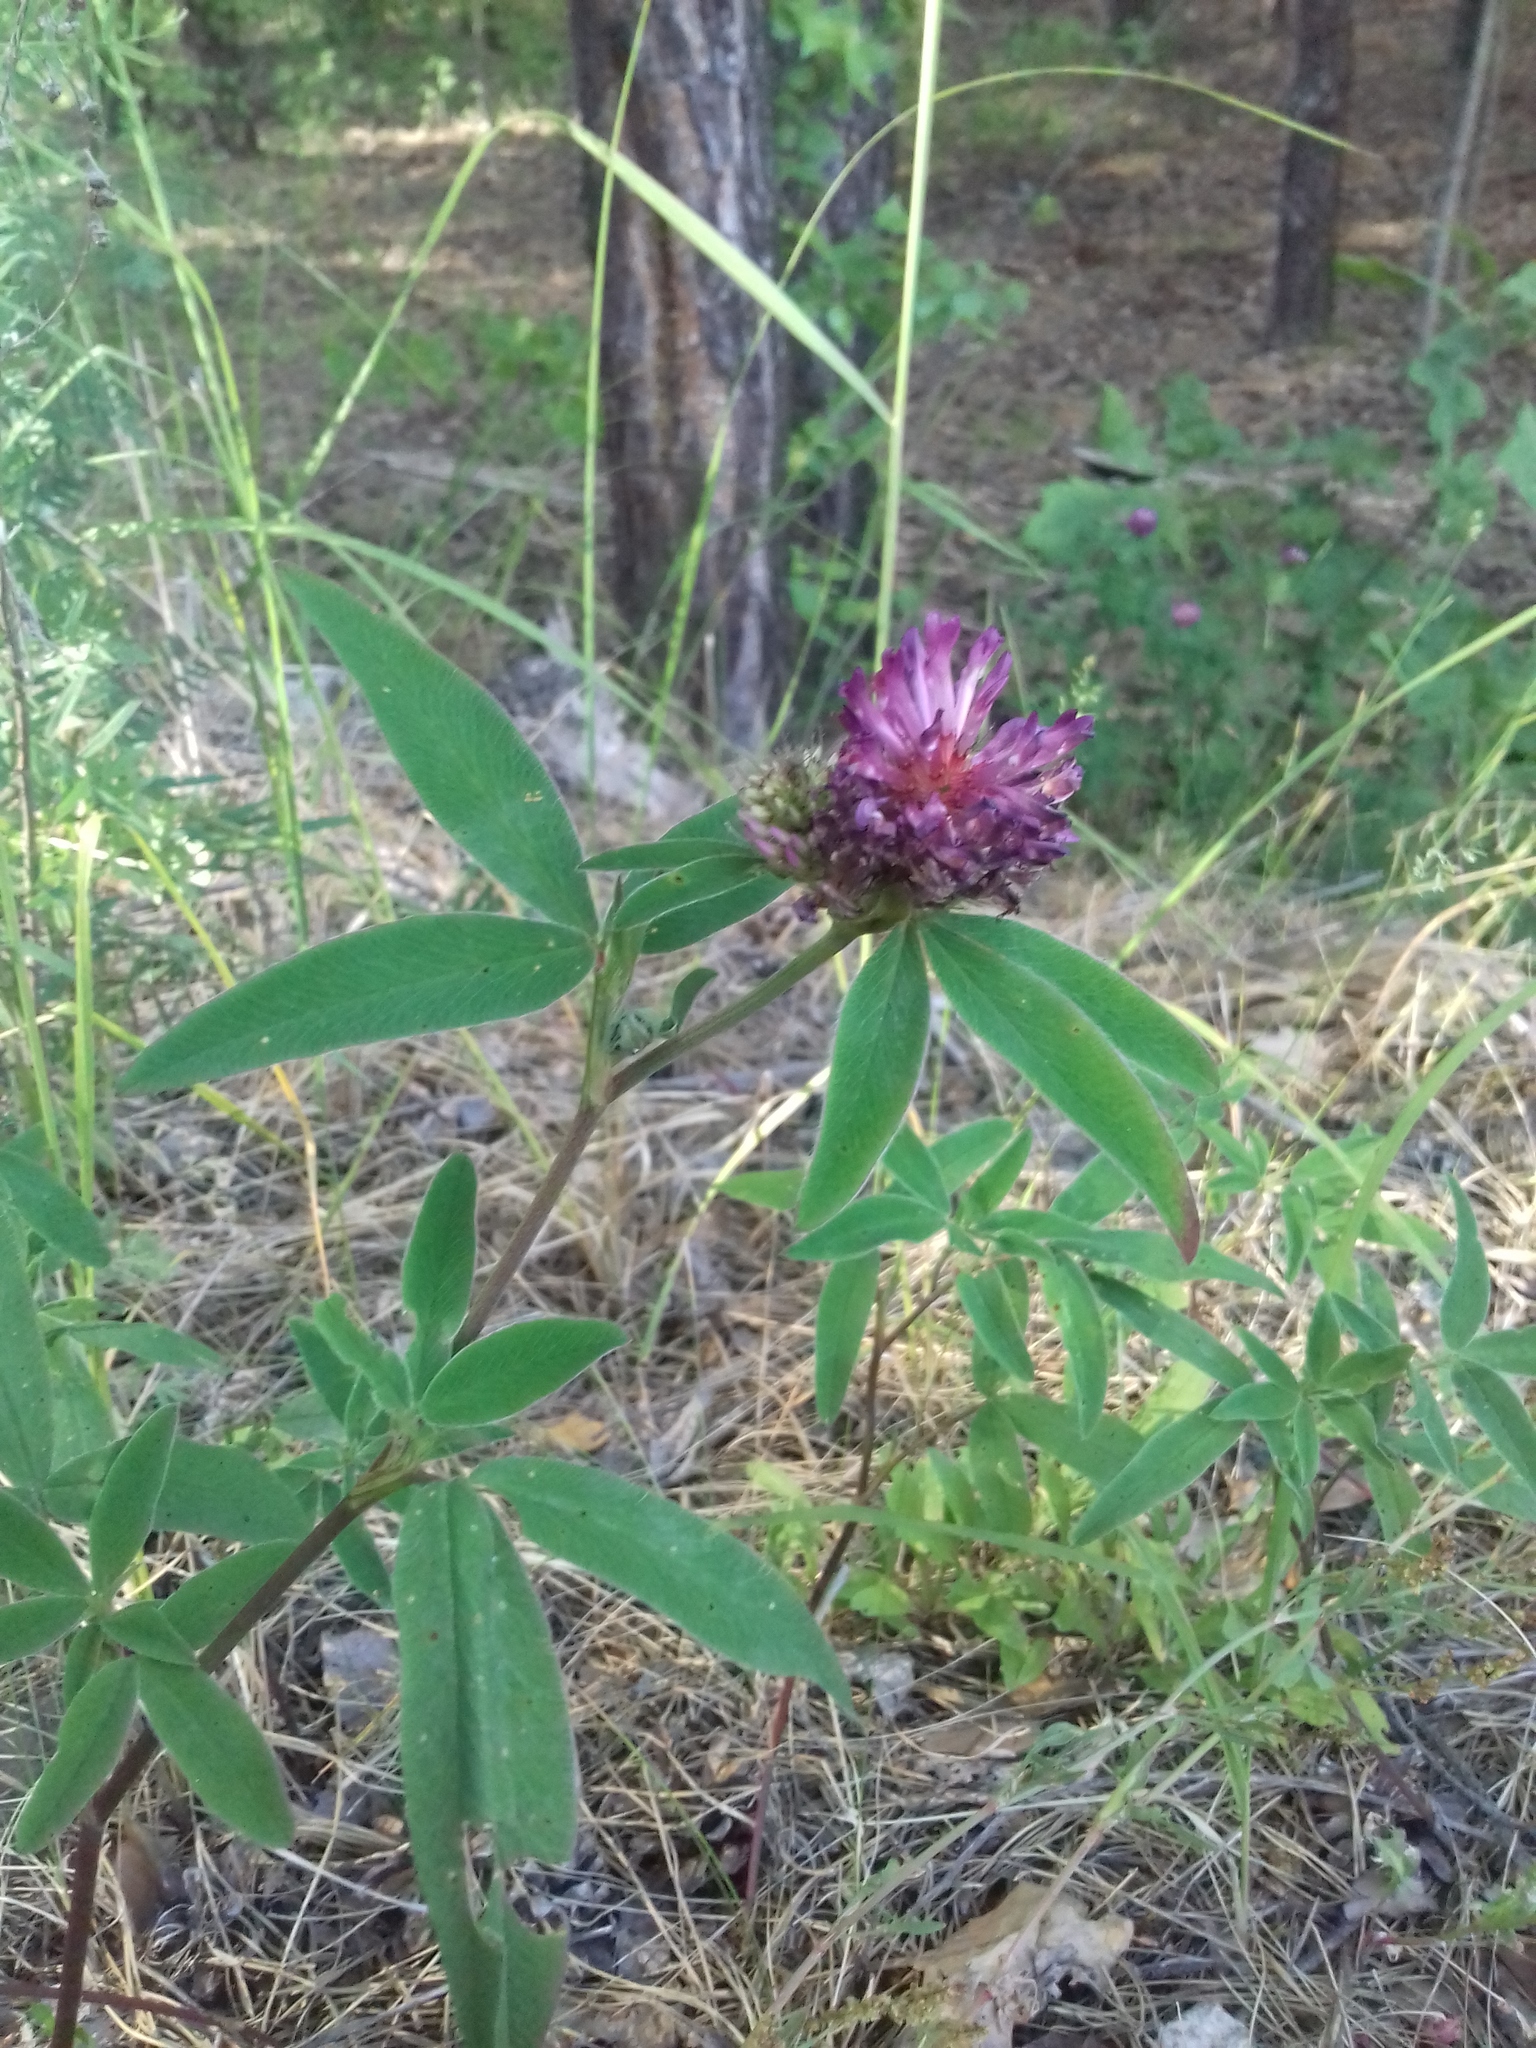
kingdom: Plantae
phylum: Tracheophyta
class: Magnoliopsida
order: Fabales
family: Fabaceae
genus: Trifolium
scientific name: Trifolium medium
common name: Zigzag clover
